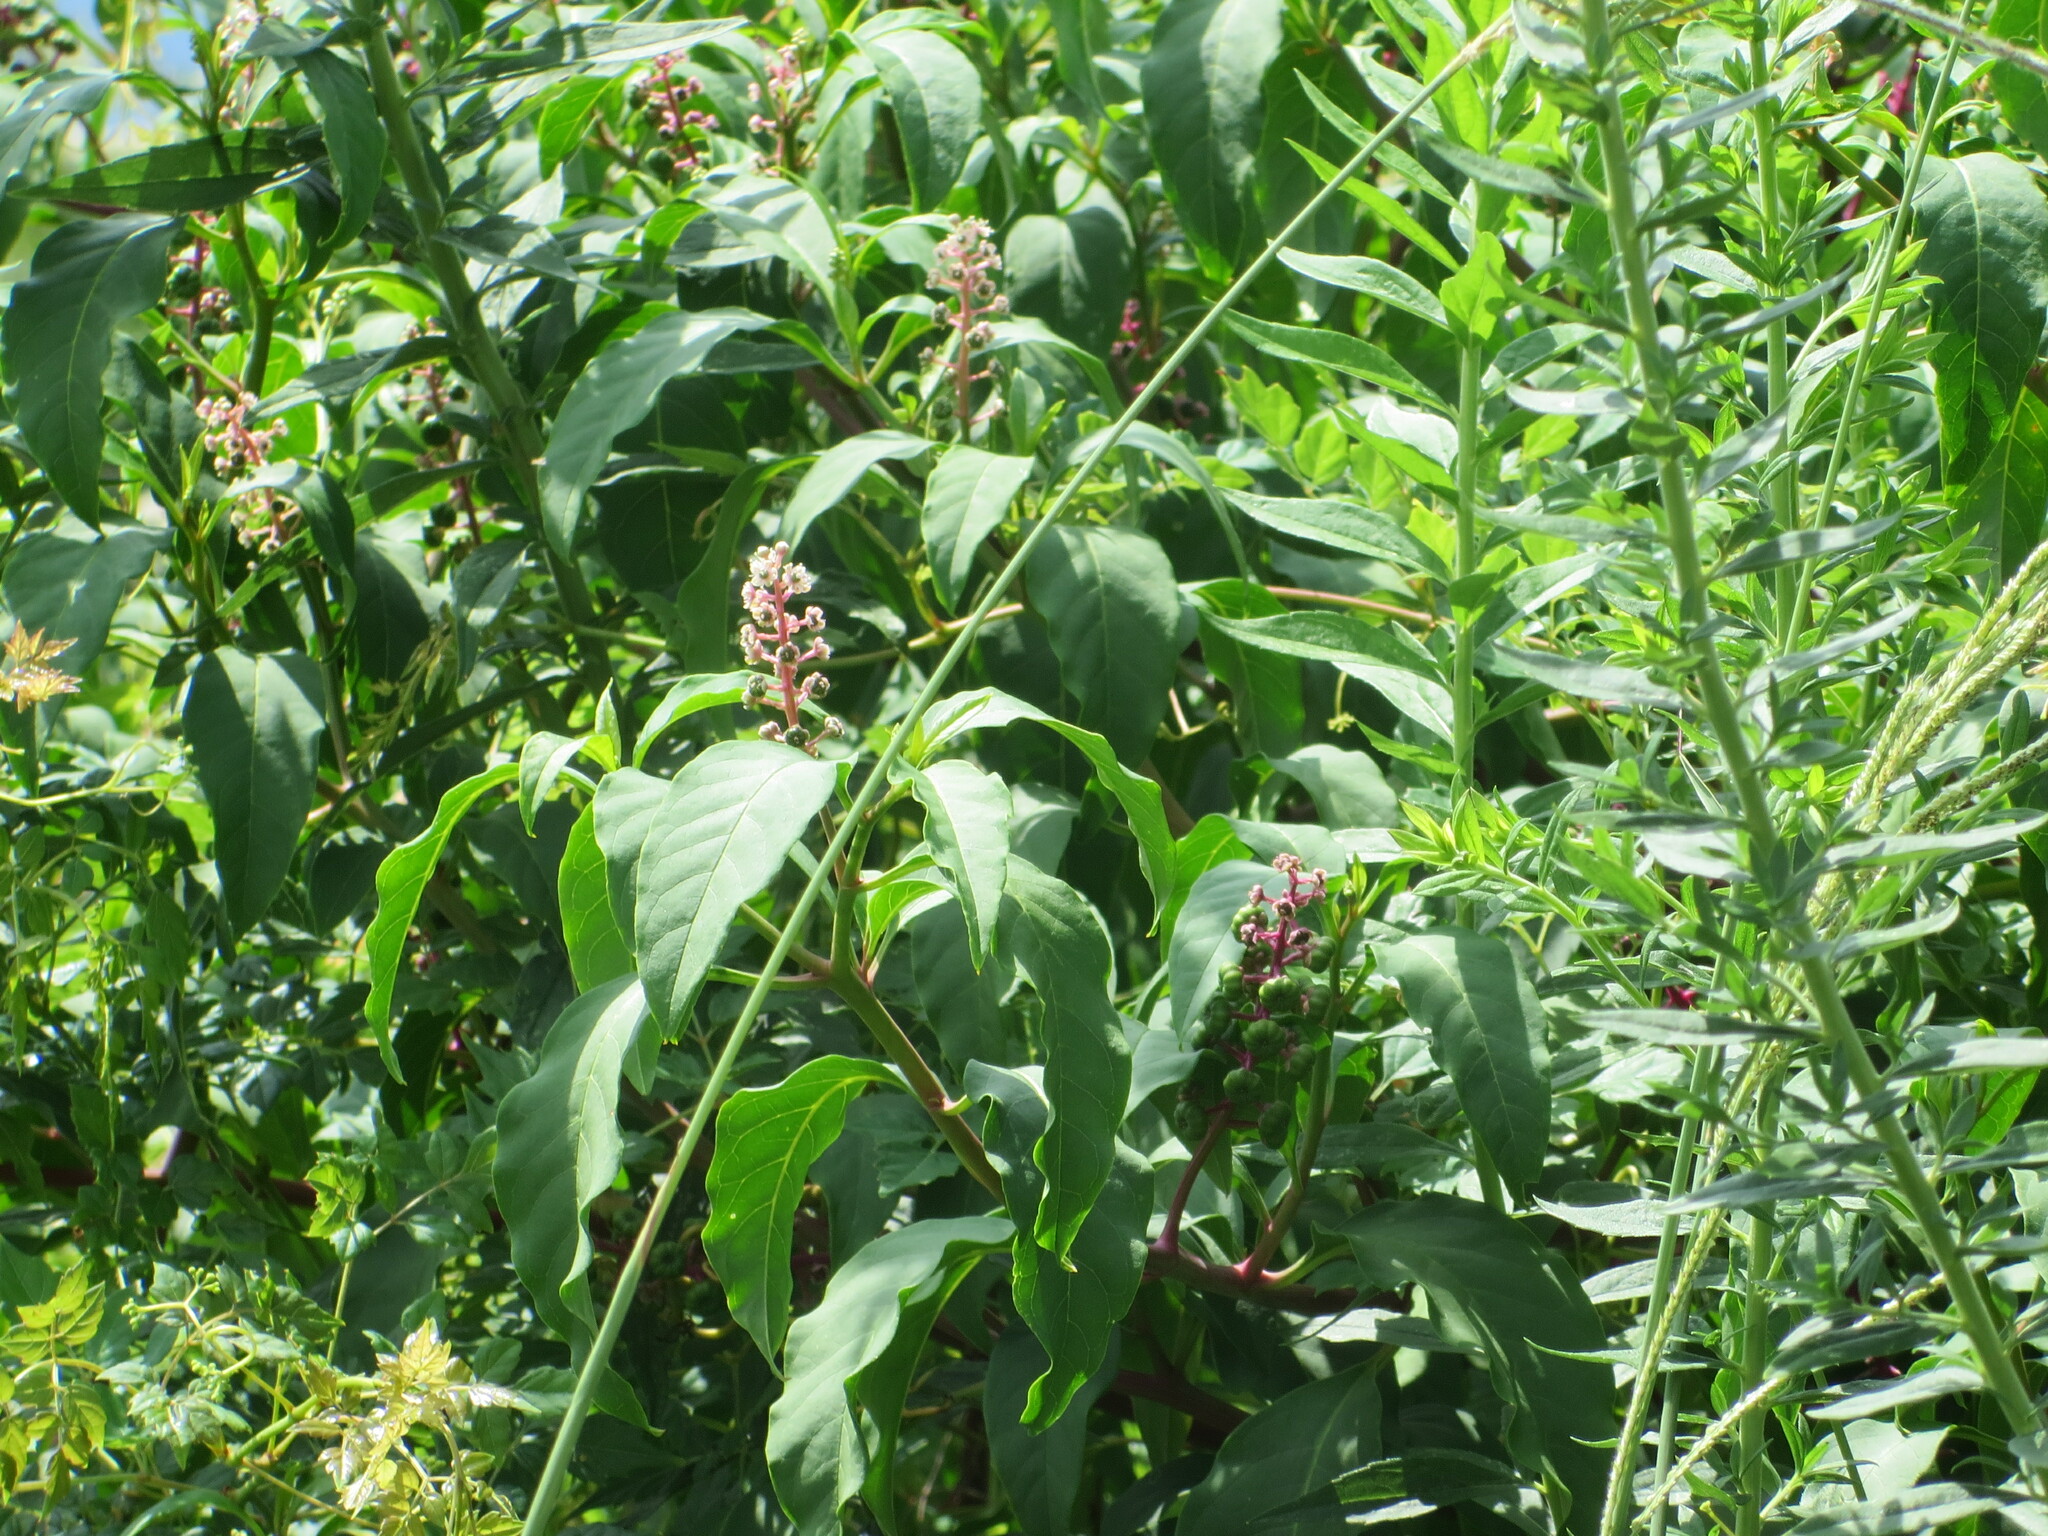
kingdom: Plantae
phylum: Tracheophyta
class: Magnoliopsida
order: Caryophyllales
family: Phytolaccaceae
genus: Phytolacca
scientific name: Phytolacca americana
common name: American pokeweed
